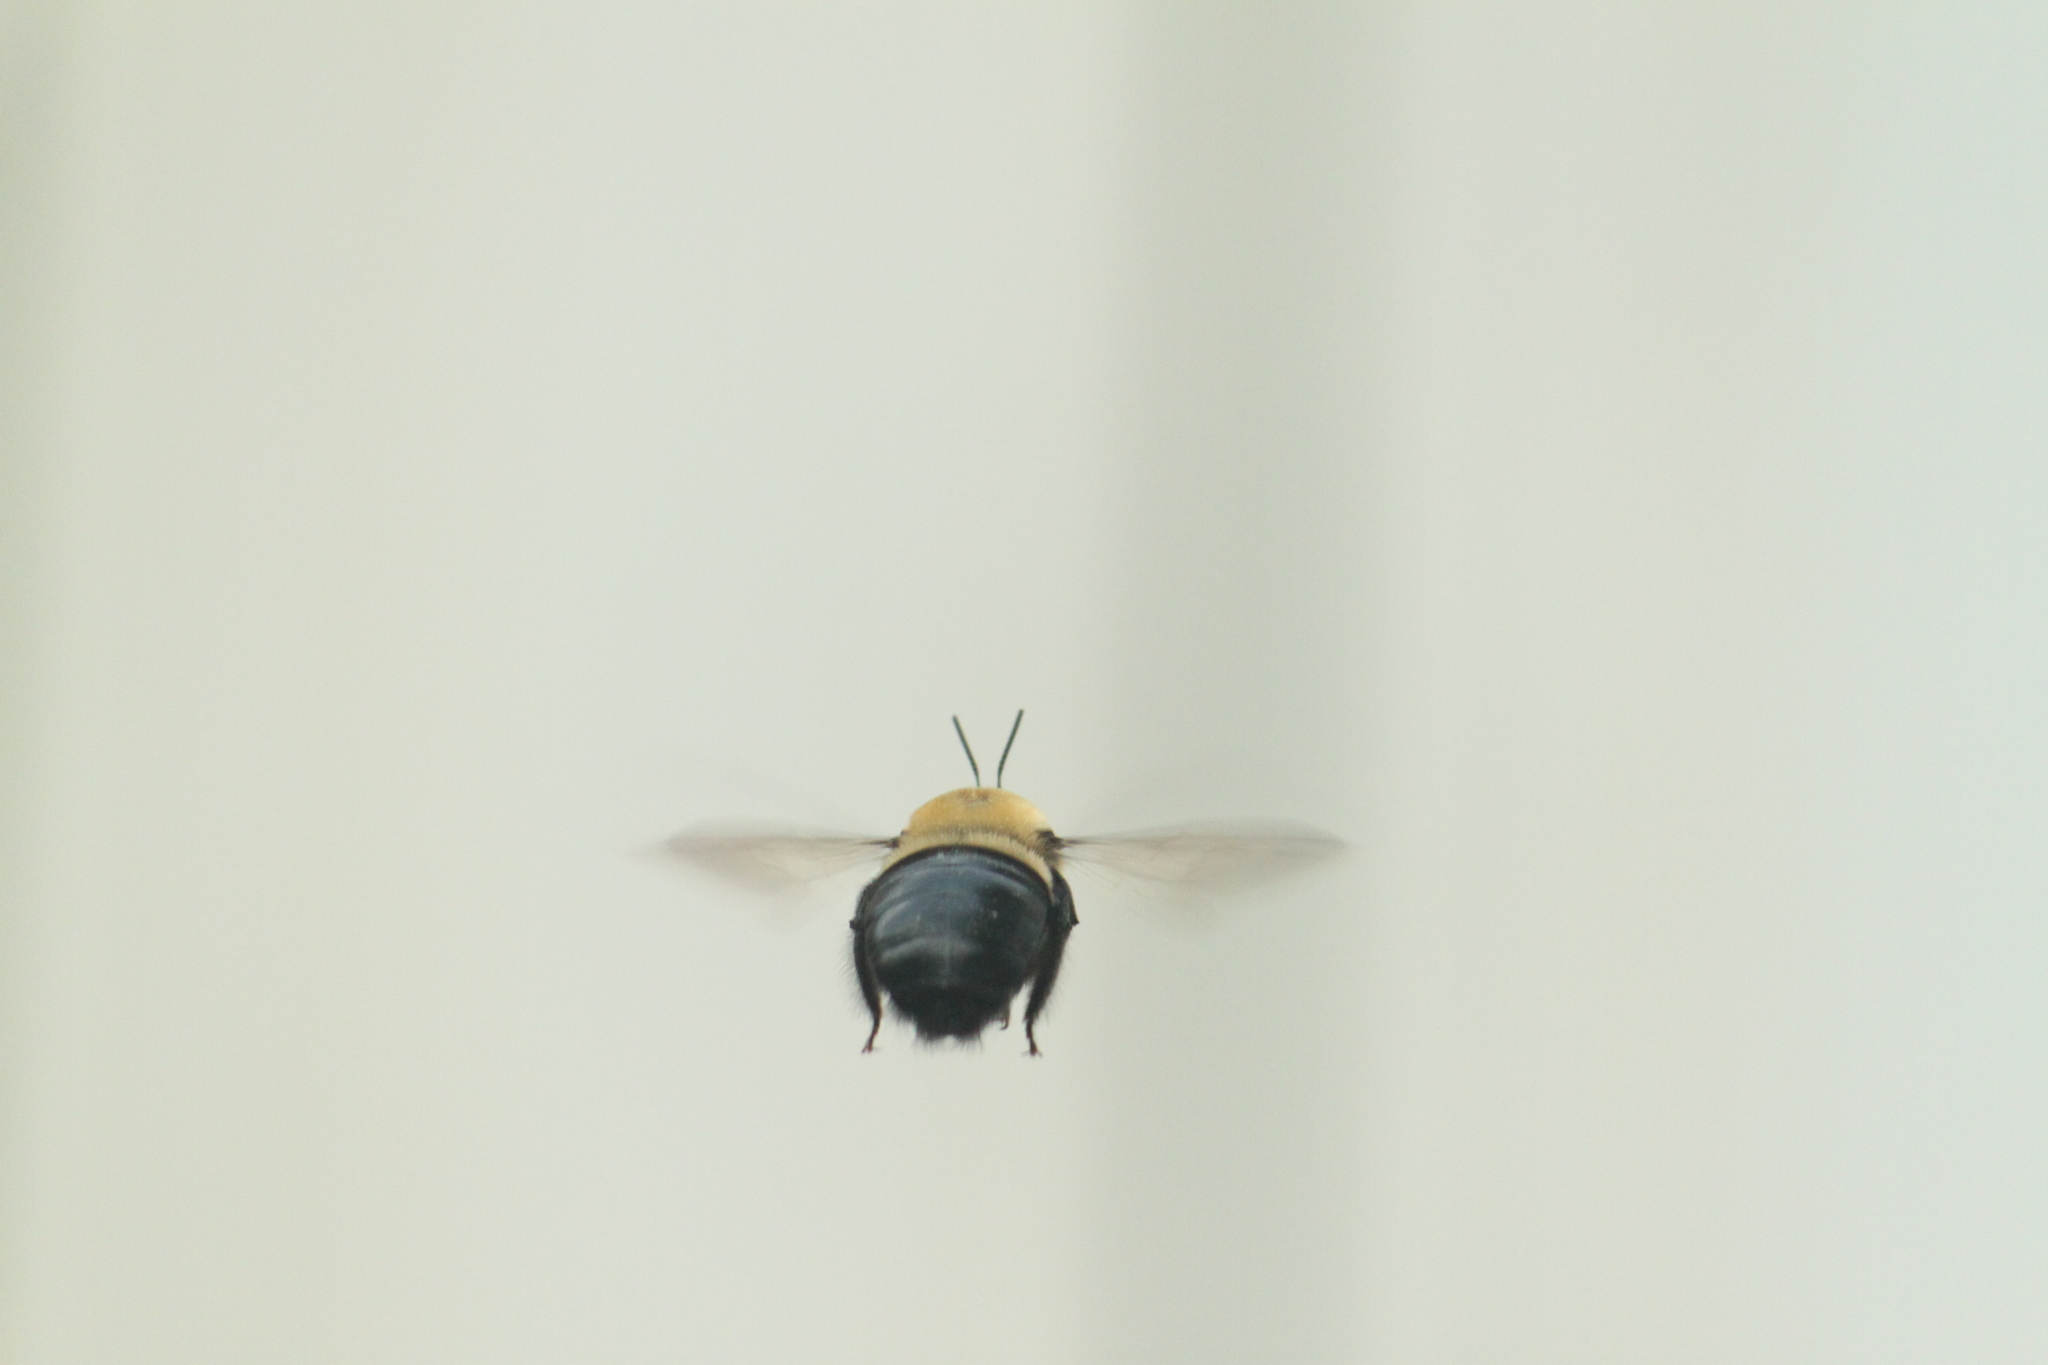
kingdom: Animalia
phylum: Arthropoda
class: Insecta
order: Hymenoptera
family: Apidae
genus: Xylocopa
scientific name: Xylocopa virginica
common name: Carpenter bee
